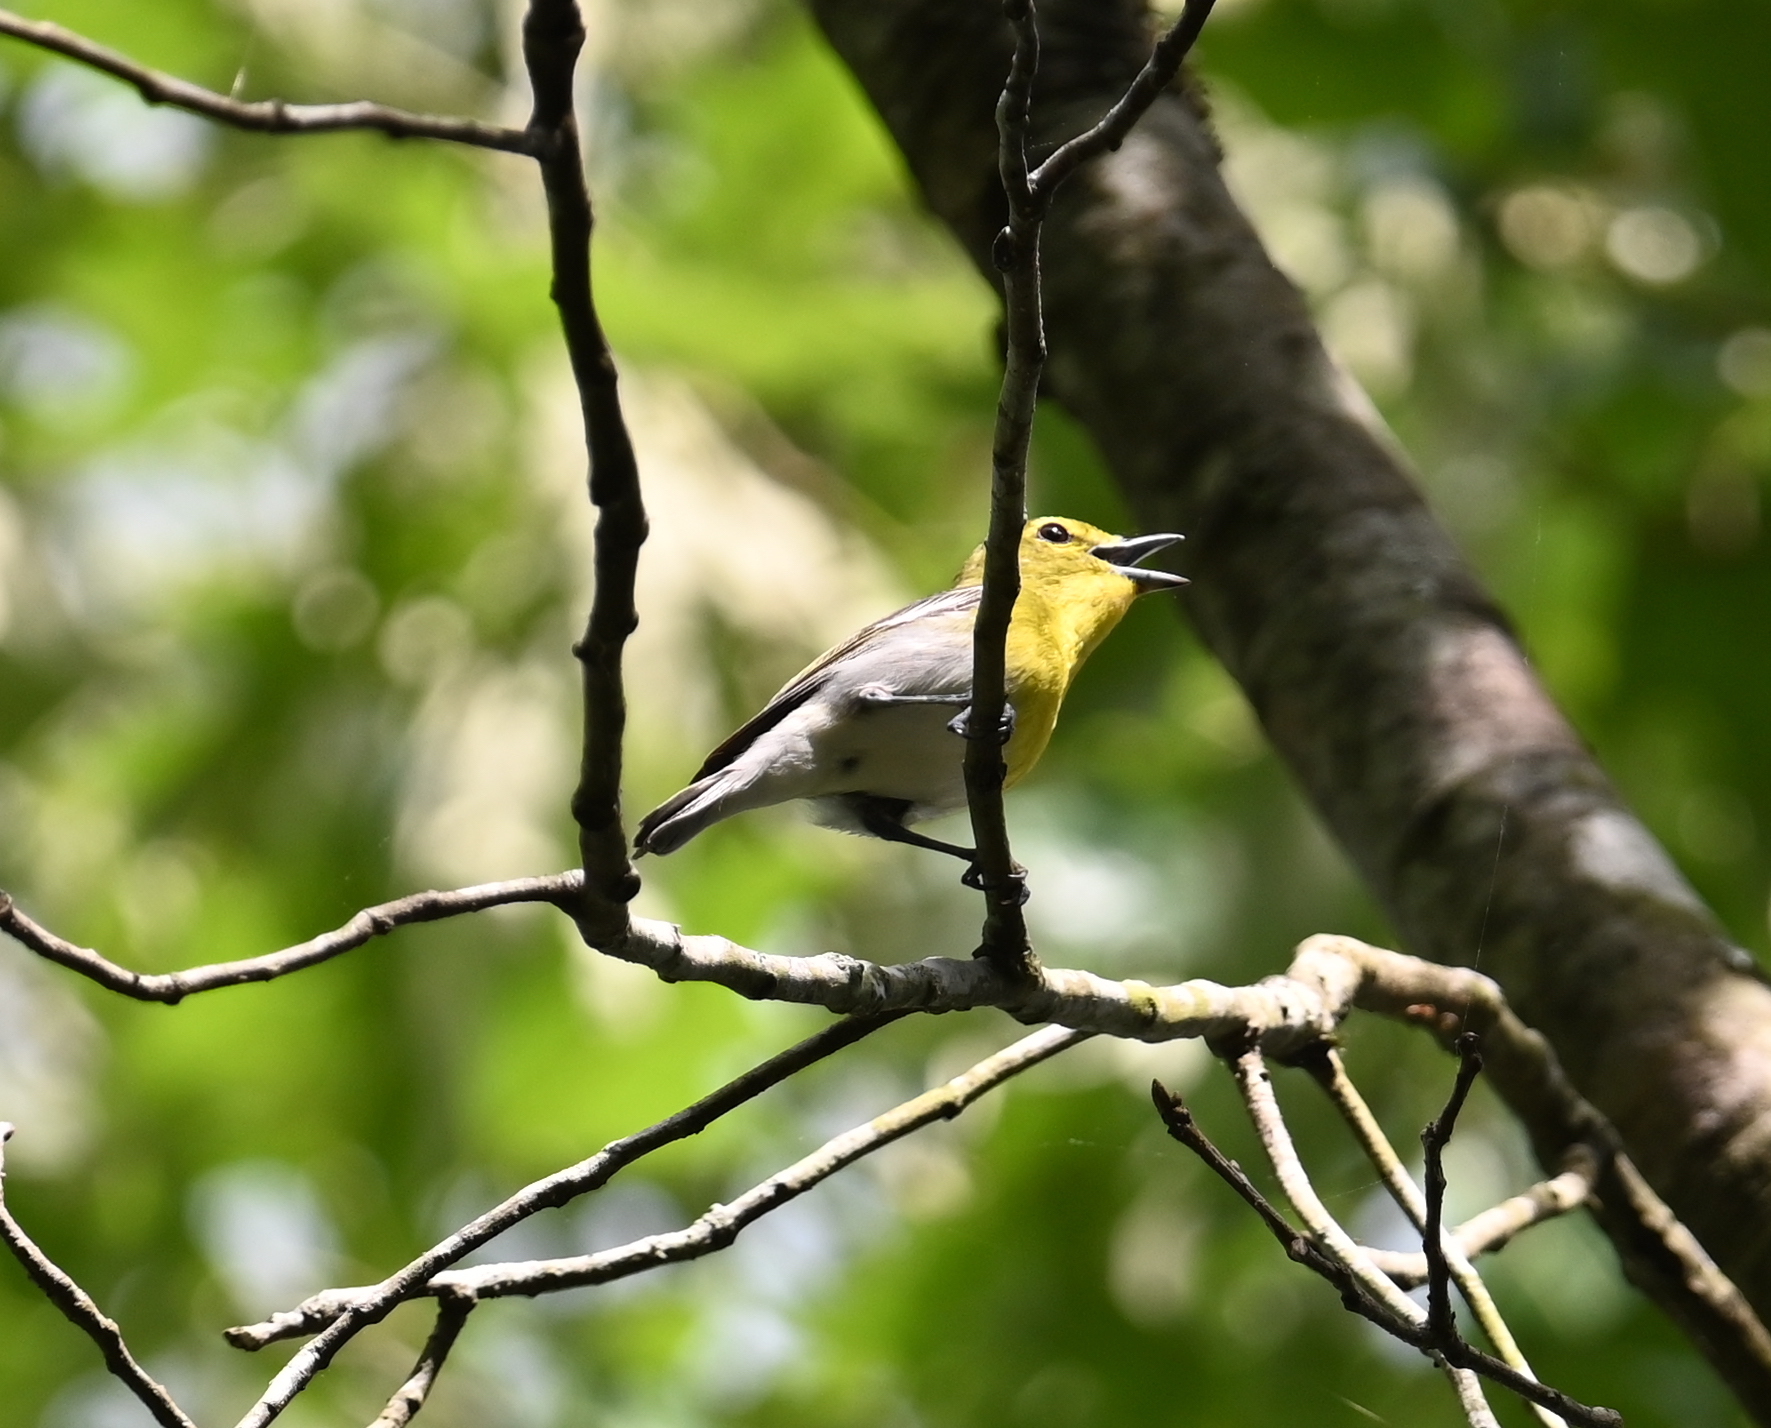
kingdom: Animalia
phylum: Chordata
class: Aves
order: Passeriformes
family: Vireonidae
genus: Vireo
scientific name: Vireo flavifrons
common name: Yellow-throated vireo
